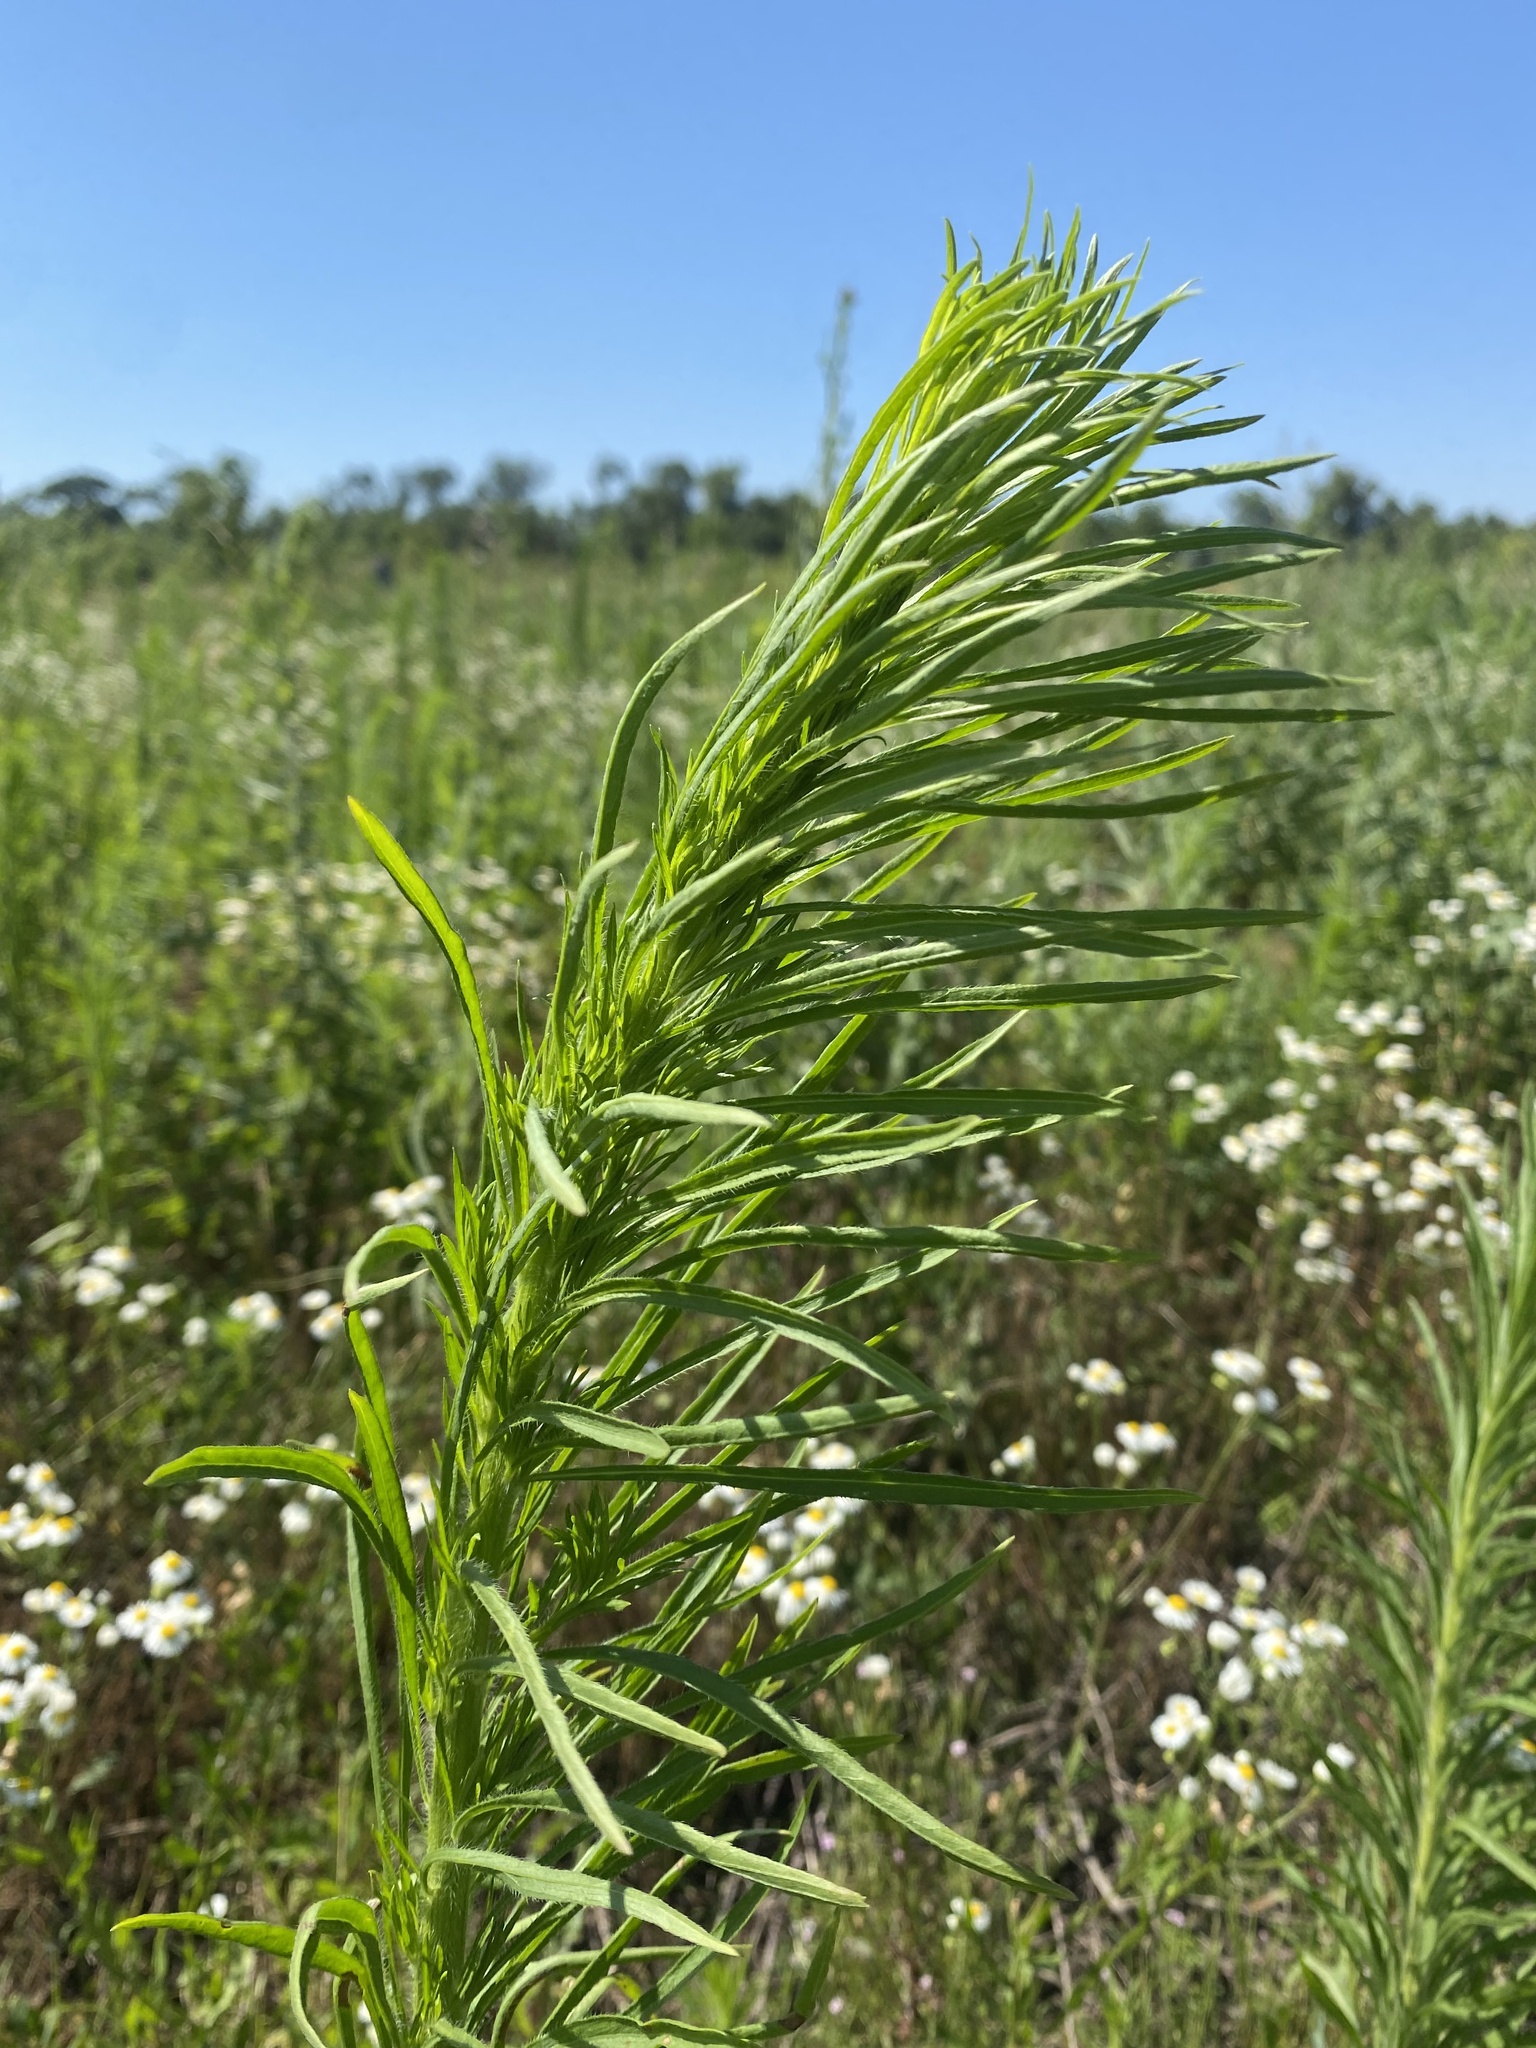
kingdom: Plantae
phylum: Tracheophyta
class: Magnoliopsida
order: Asterales
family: Asteraceae
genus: Erigeron
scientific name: Erigeron canadensis
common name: Canadian fleabane
